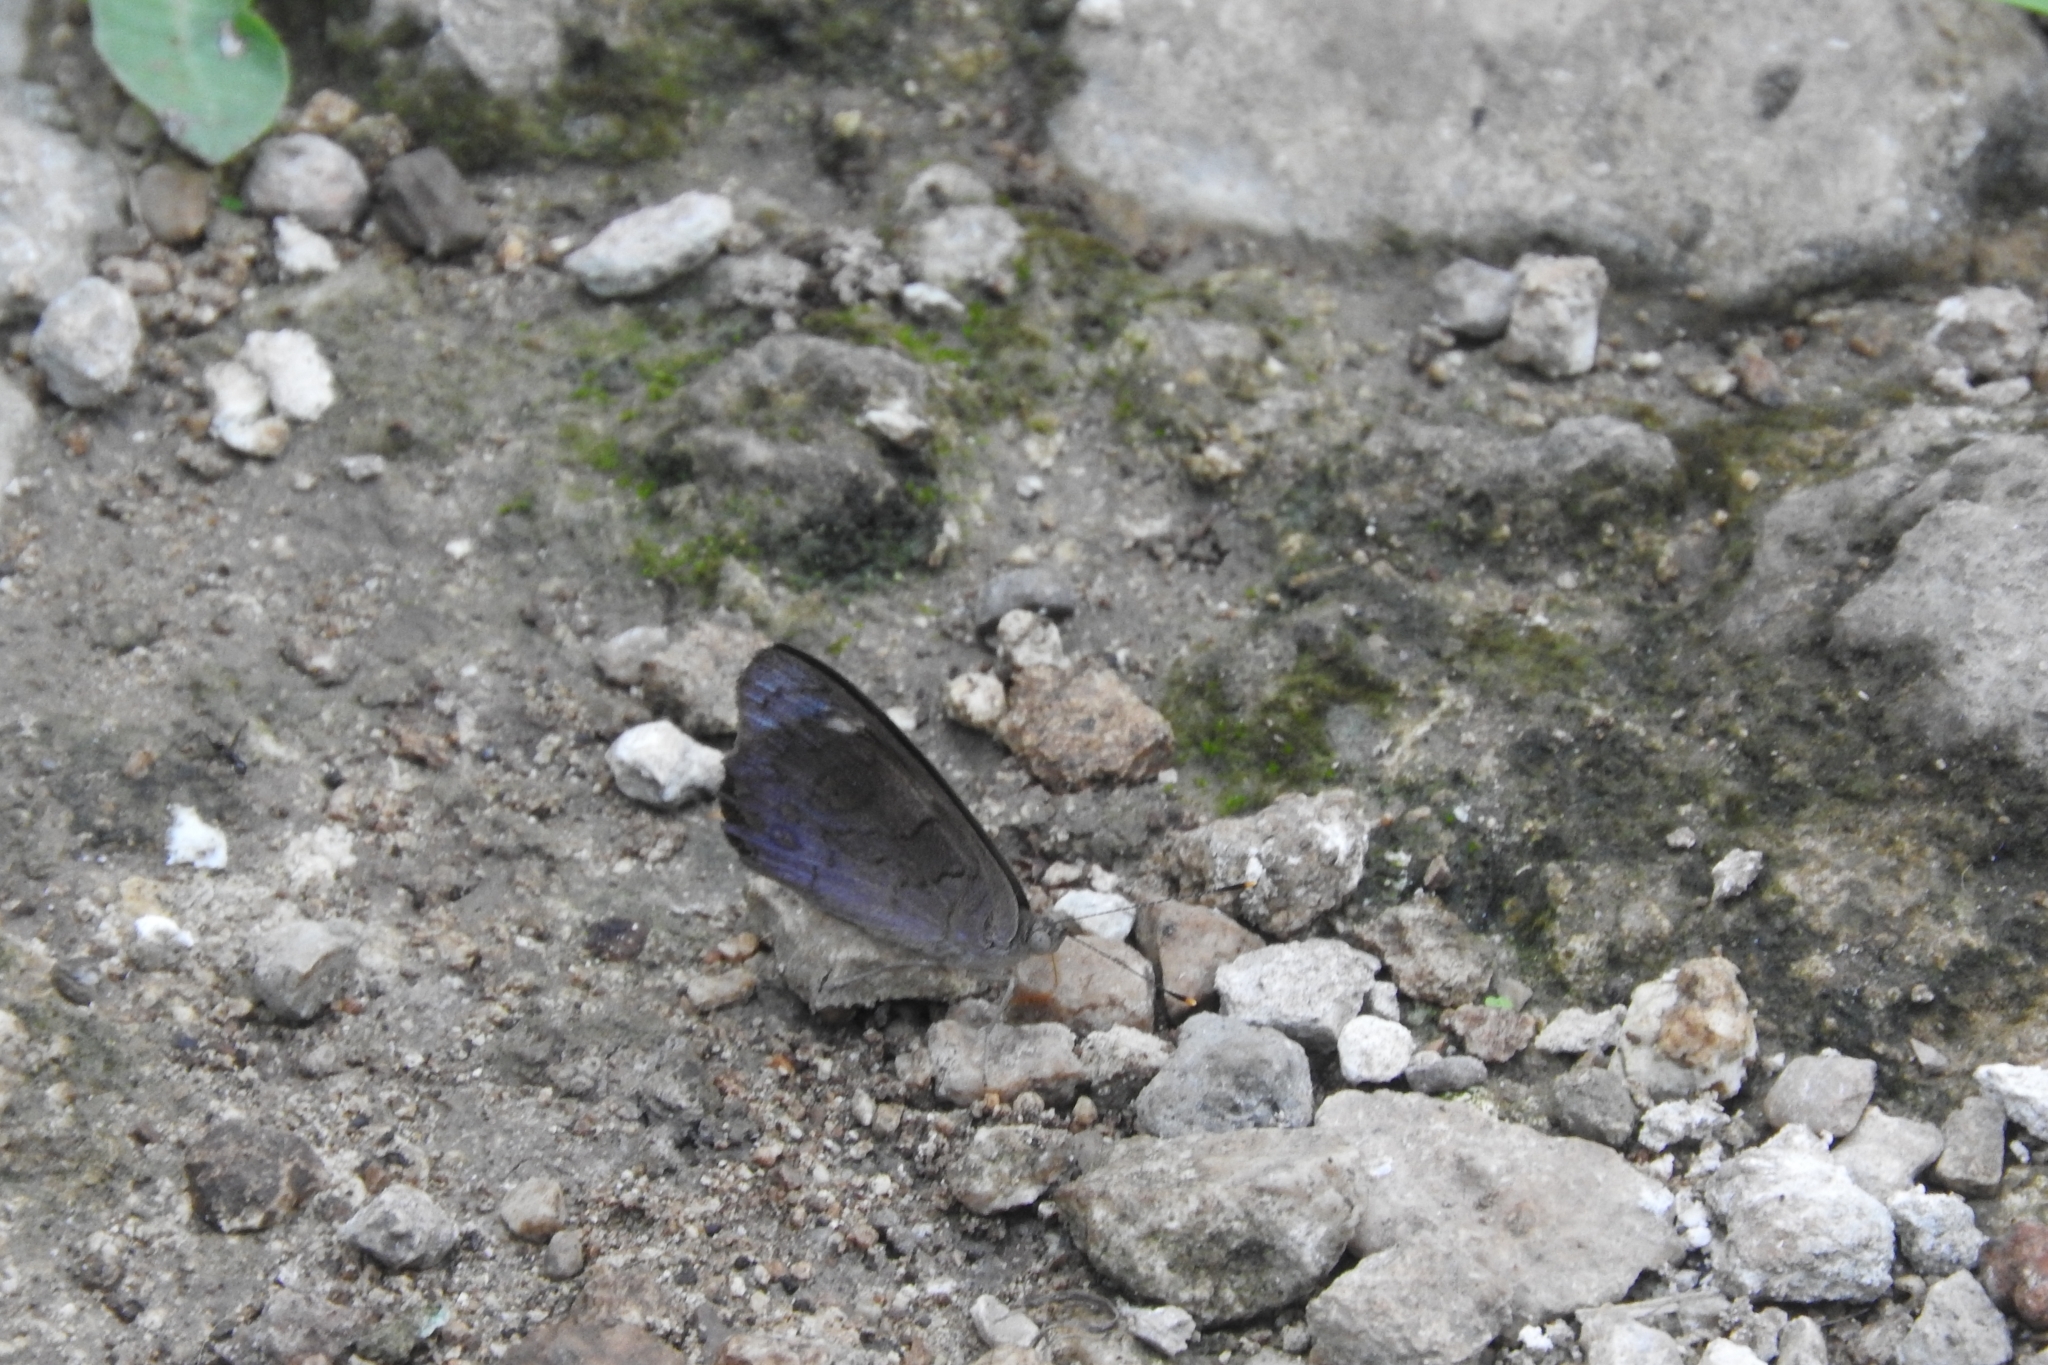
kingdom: Animalia
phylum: Arthropoda
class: Insecta
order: Lepidoptera
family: Nymphalidae
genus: Eunica
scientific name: Eunica monima
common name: Dingy purplewing
